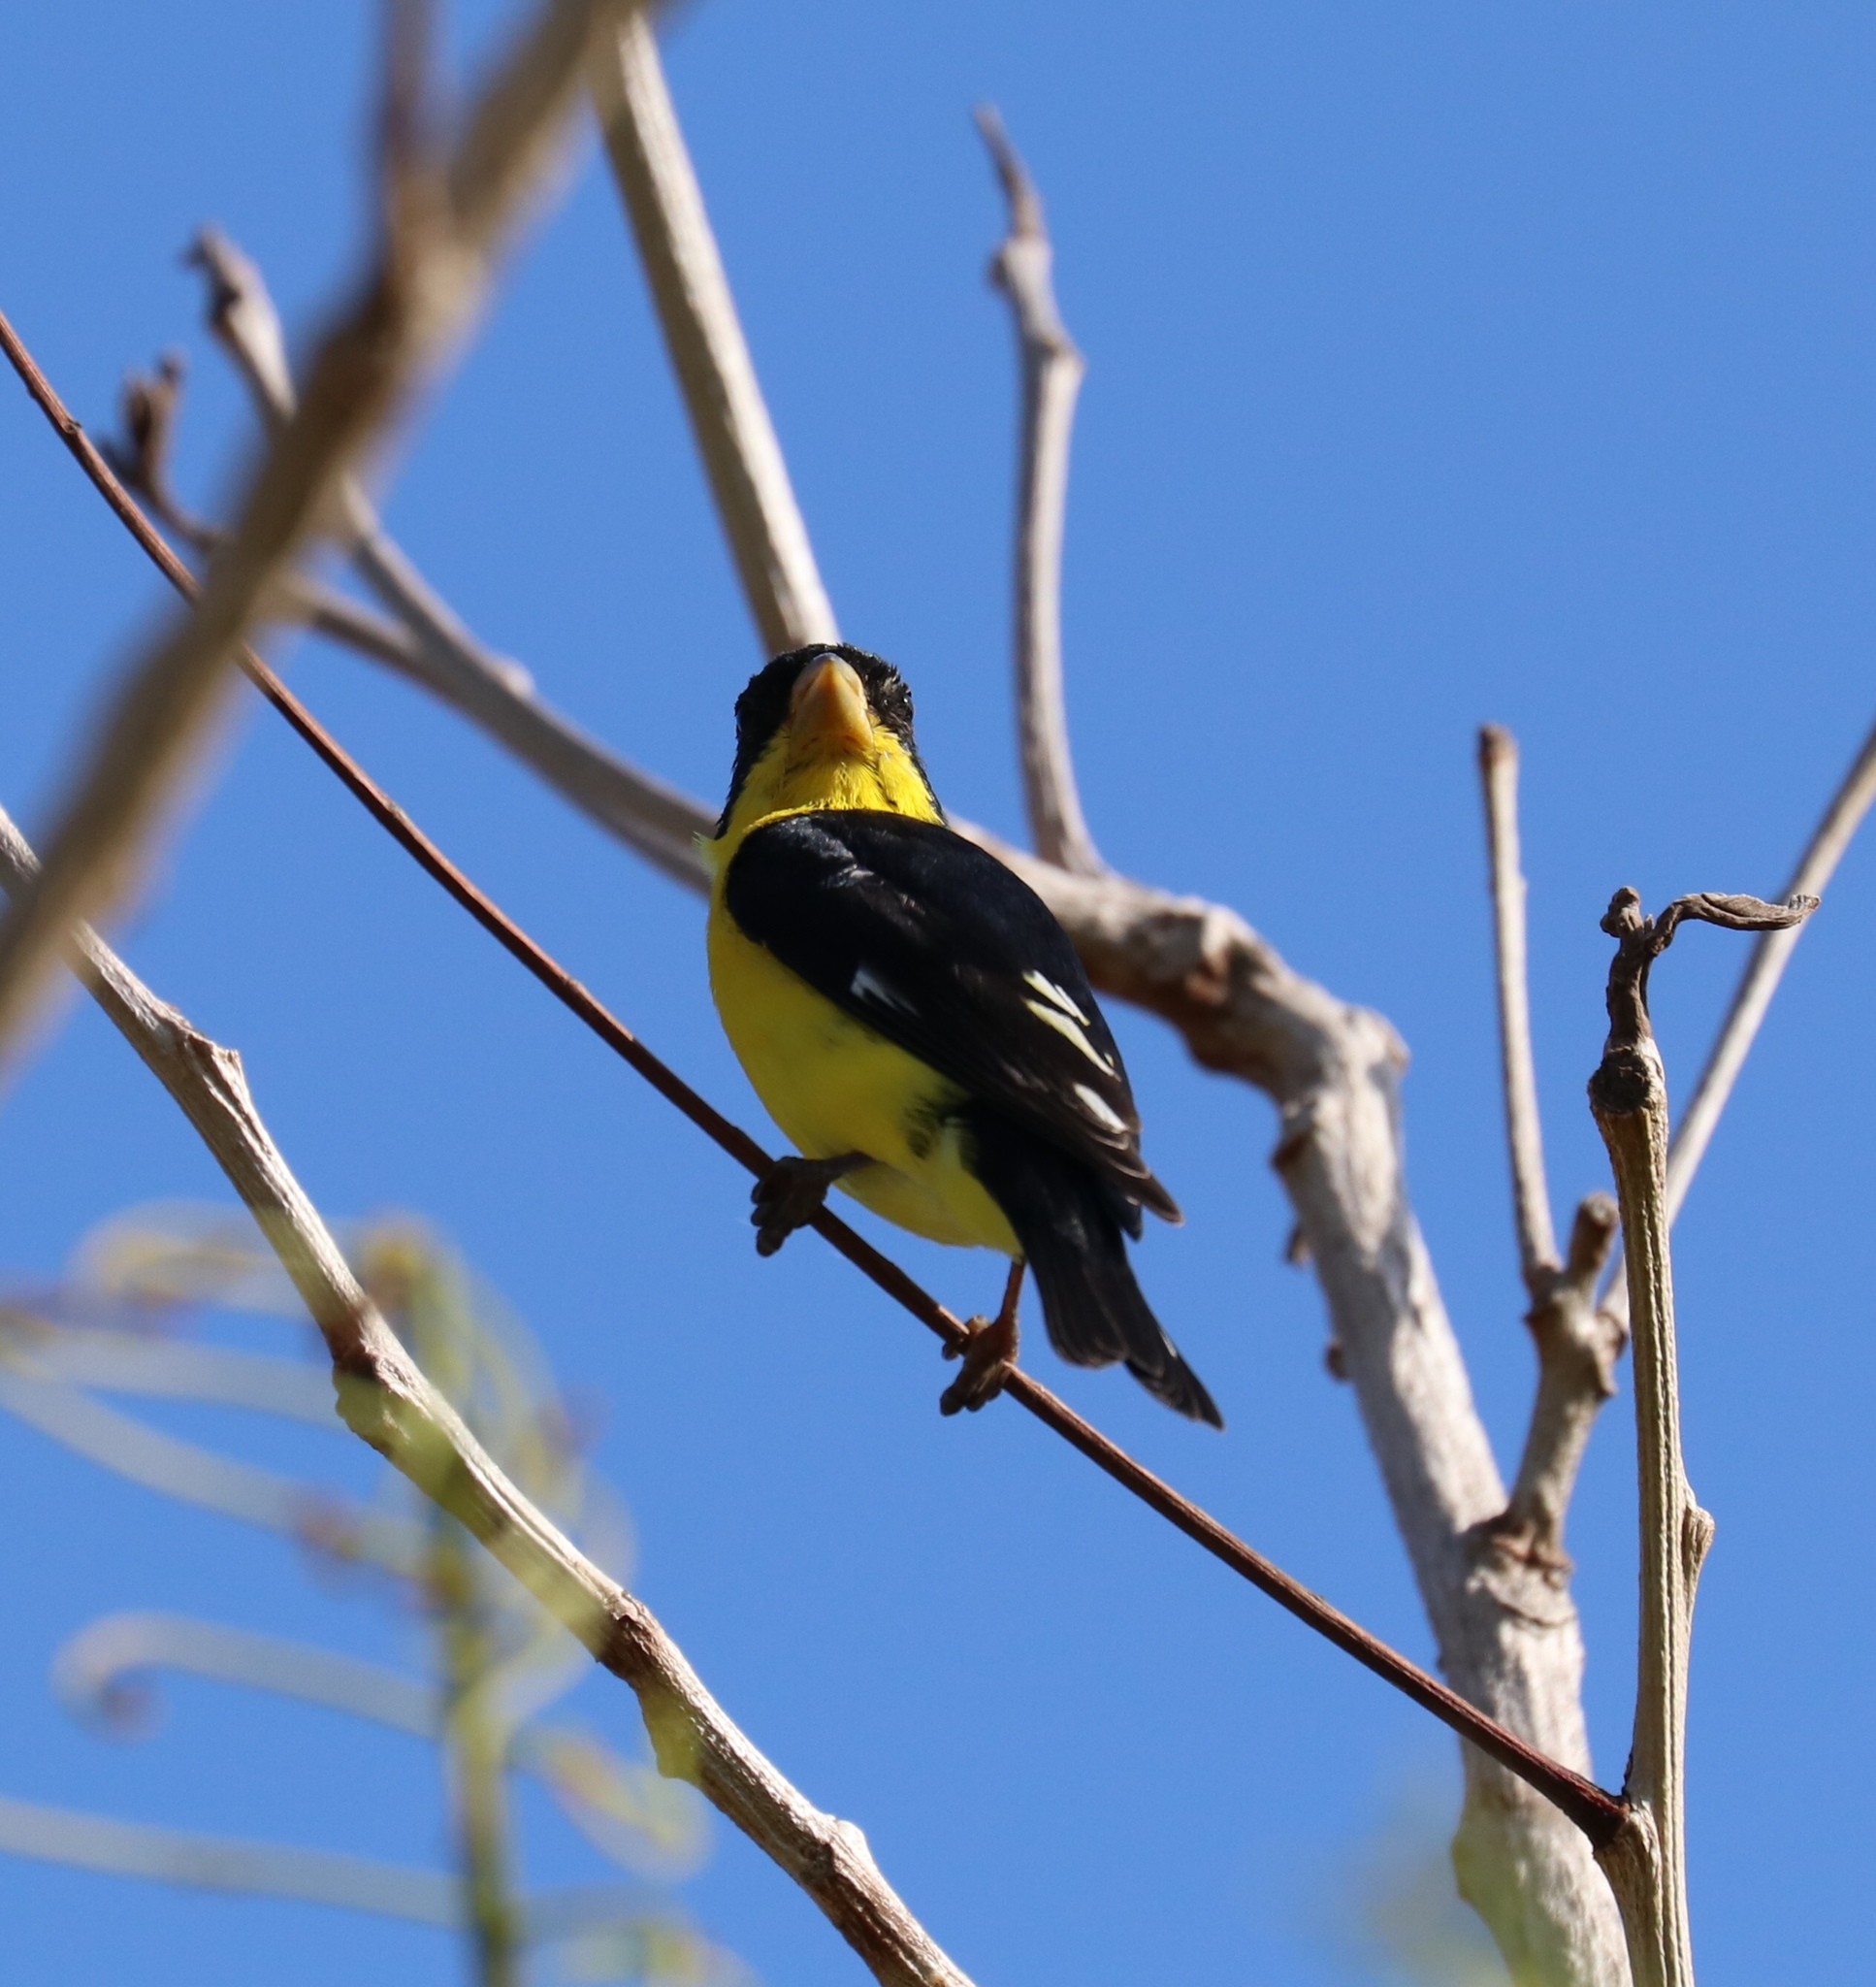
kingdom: Animalia
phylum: Chordata
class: Aves
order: Passeriformes
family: Fringillidae
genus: Spinus
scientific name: Spinus psaltria
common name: Lesser goldfinch
